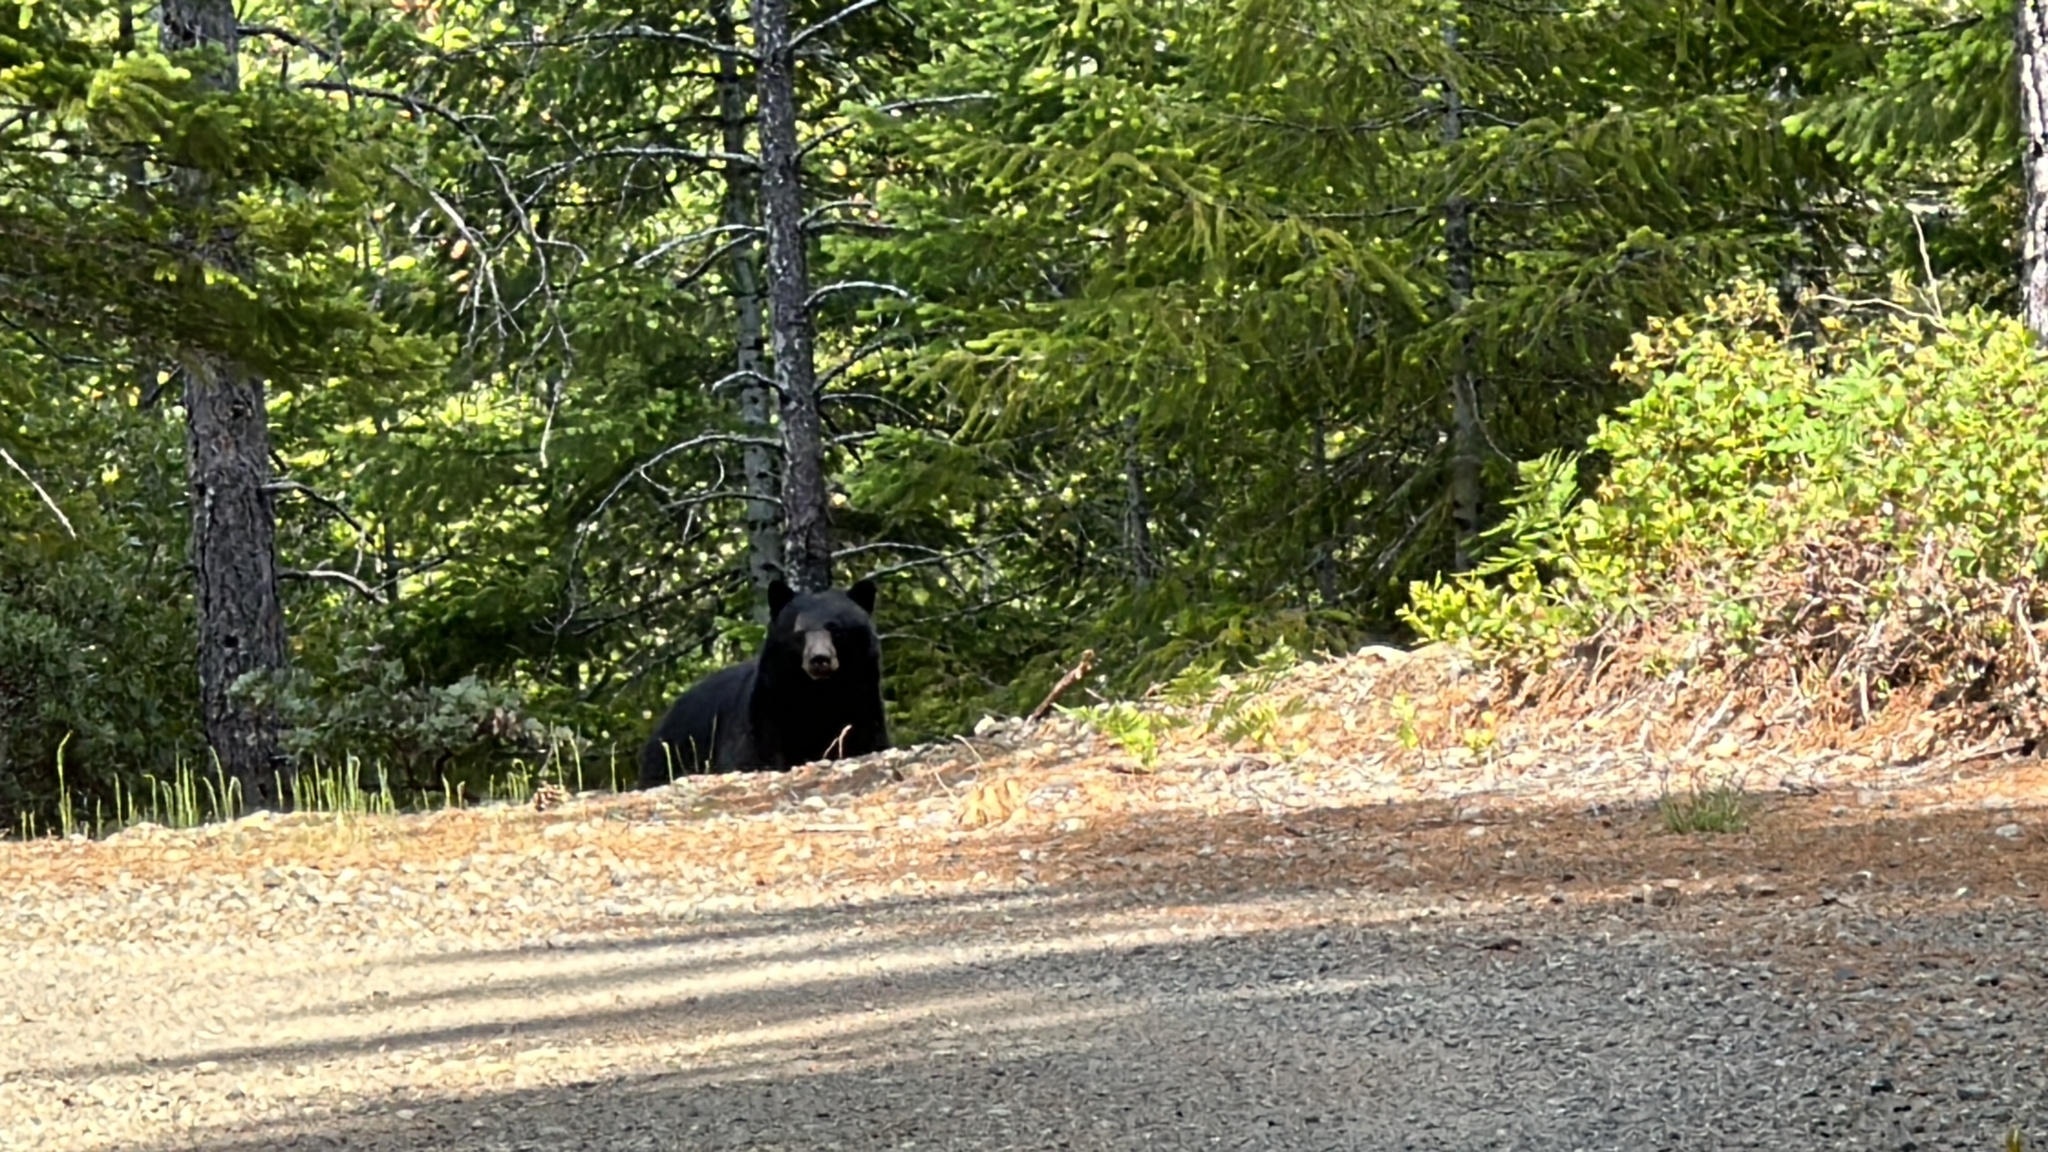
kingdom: Animalia
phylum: Chordata
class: Mammalia
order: Carnivora
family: Ursidae
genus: Ursus
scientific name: Ursus americanus
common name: American black bear
